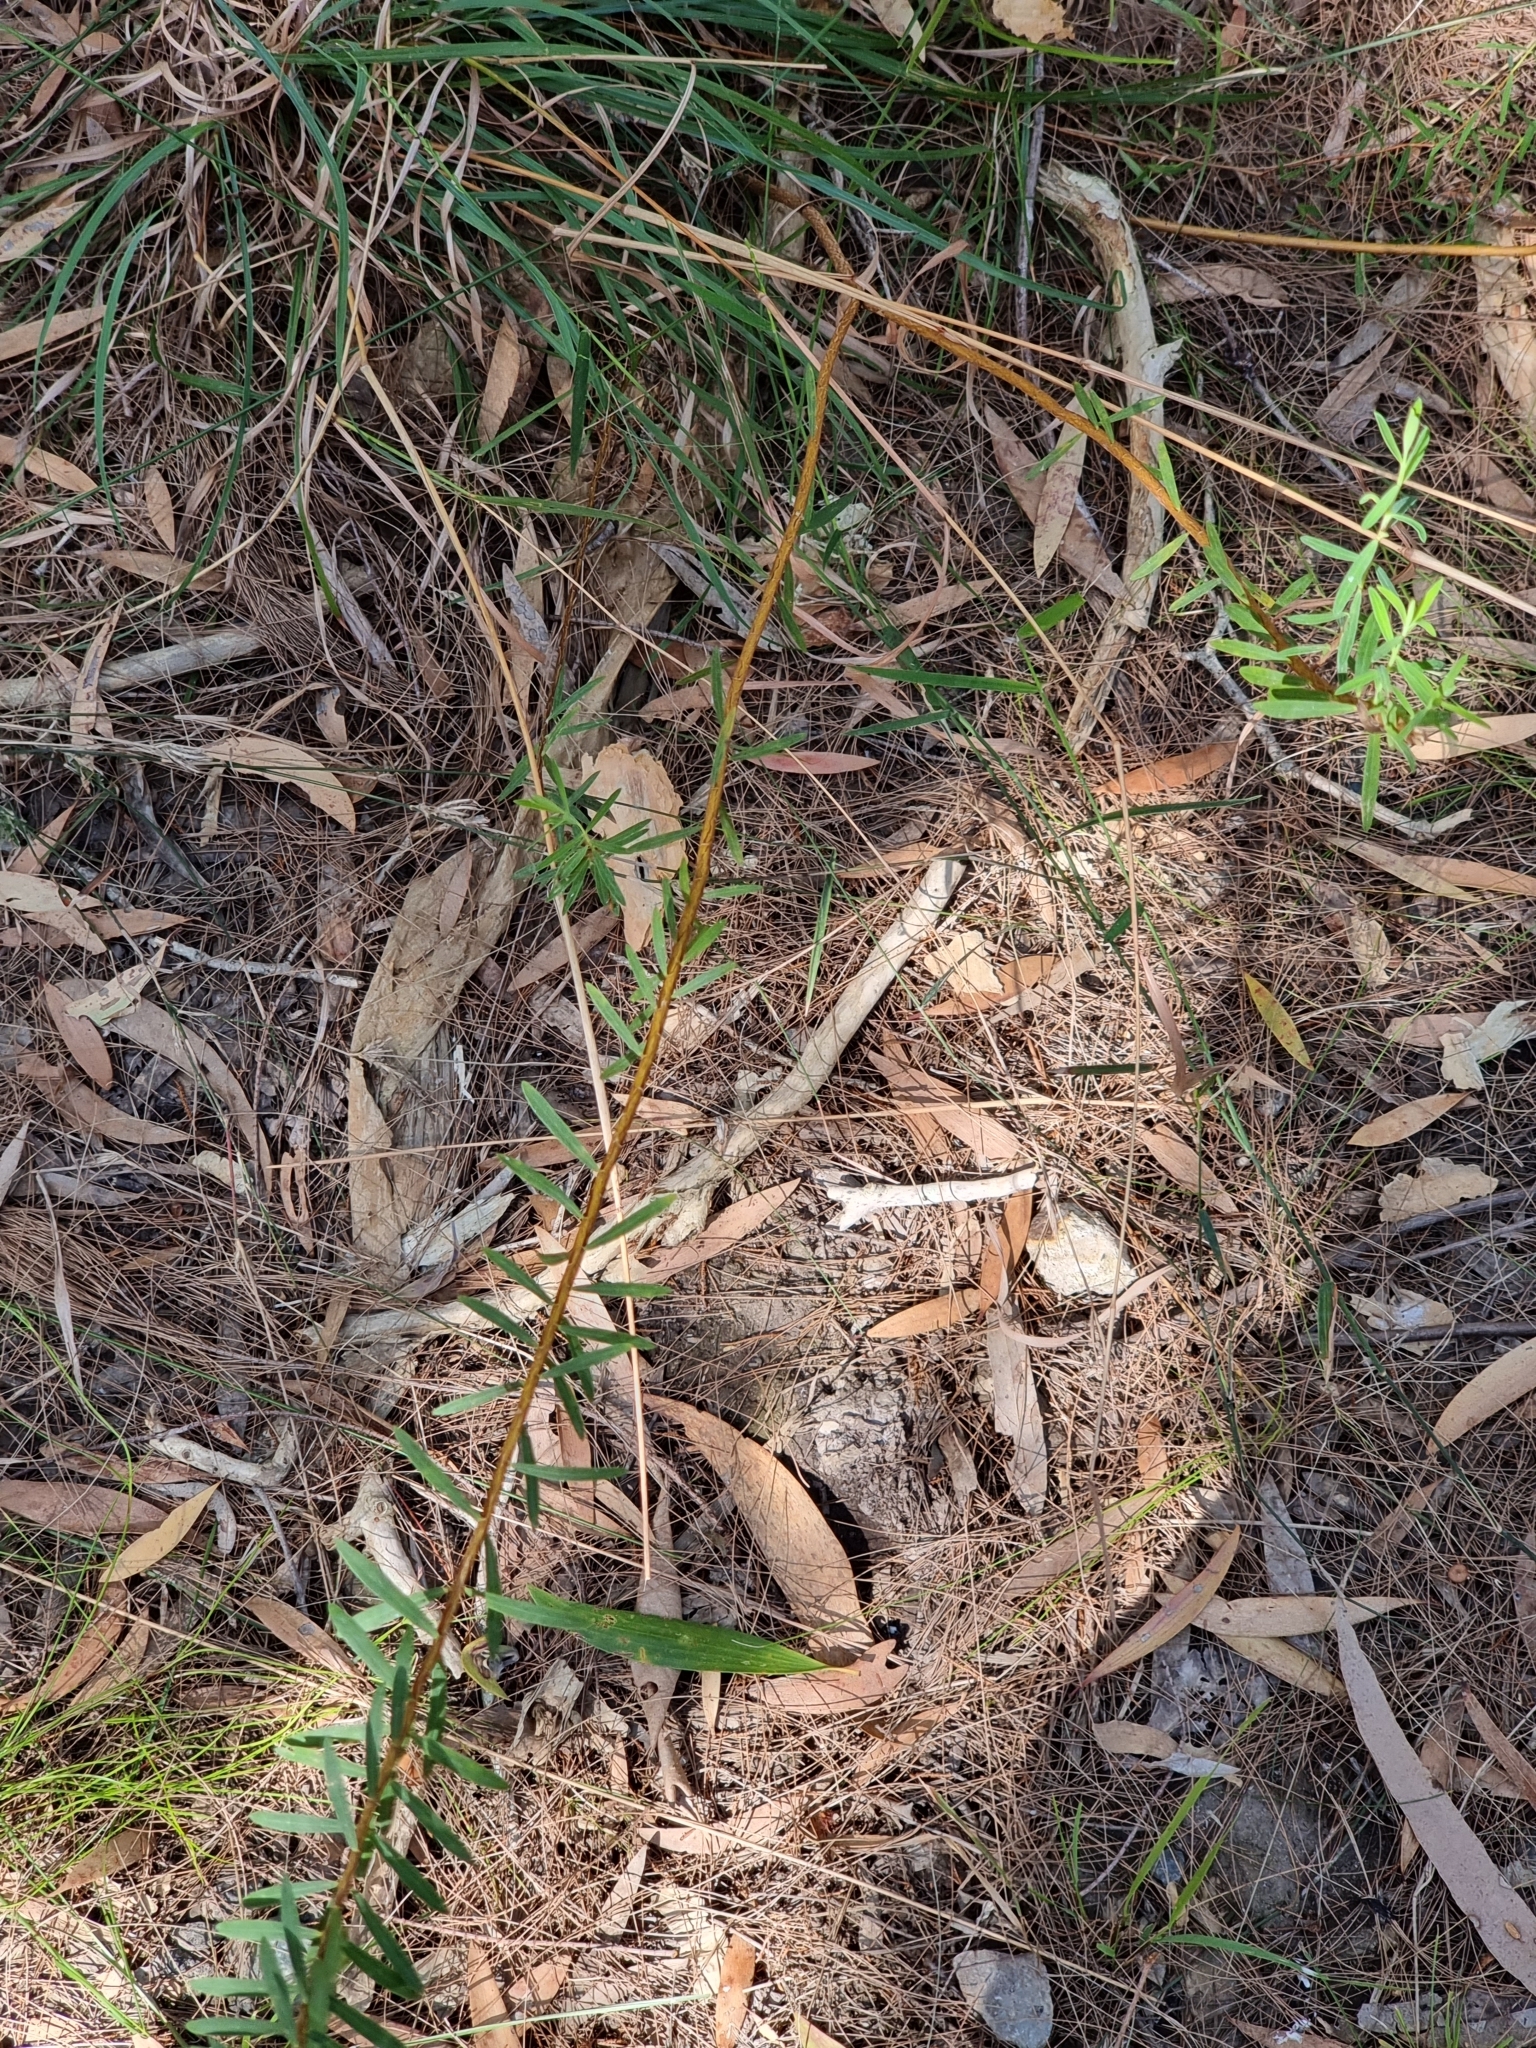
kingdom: Plantae
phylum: Tracheophyta
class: Liliopsida
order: Asparagales
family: Asphodelaceae
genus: Caesia
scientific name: Caesia parviflora
